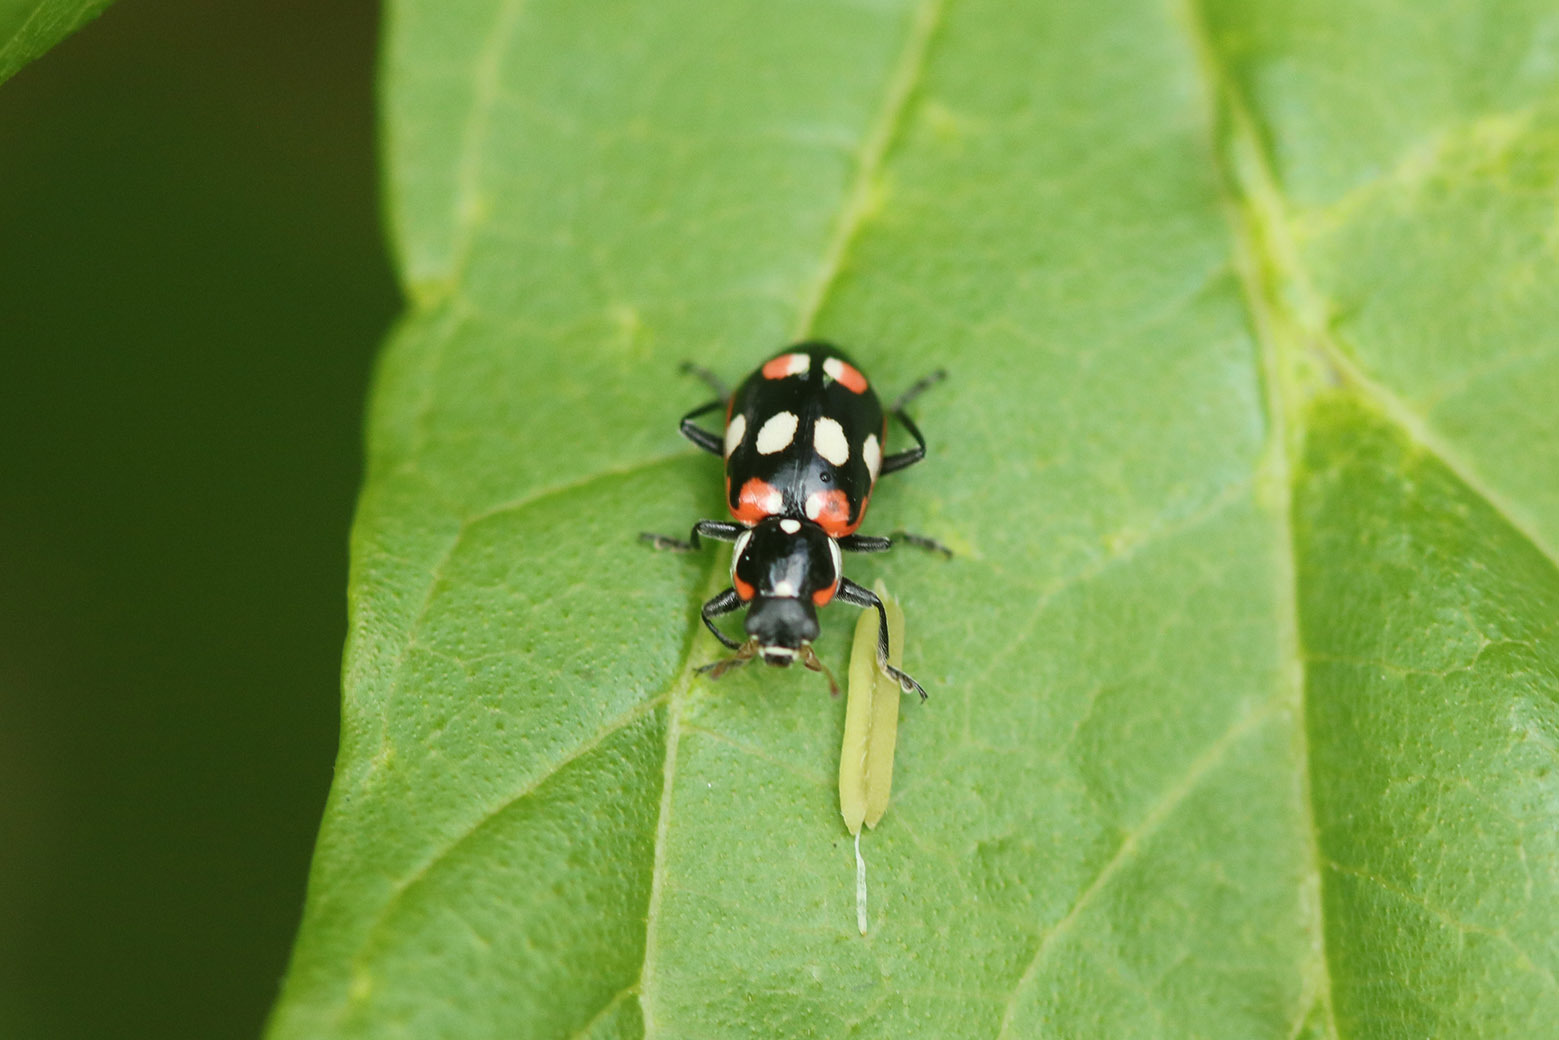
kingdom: Animalia
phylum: Arthropoda
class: Insecta
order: Coleoptera
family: Coccinellidae
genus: Eriopis
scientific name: Eriopis connexa
